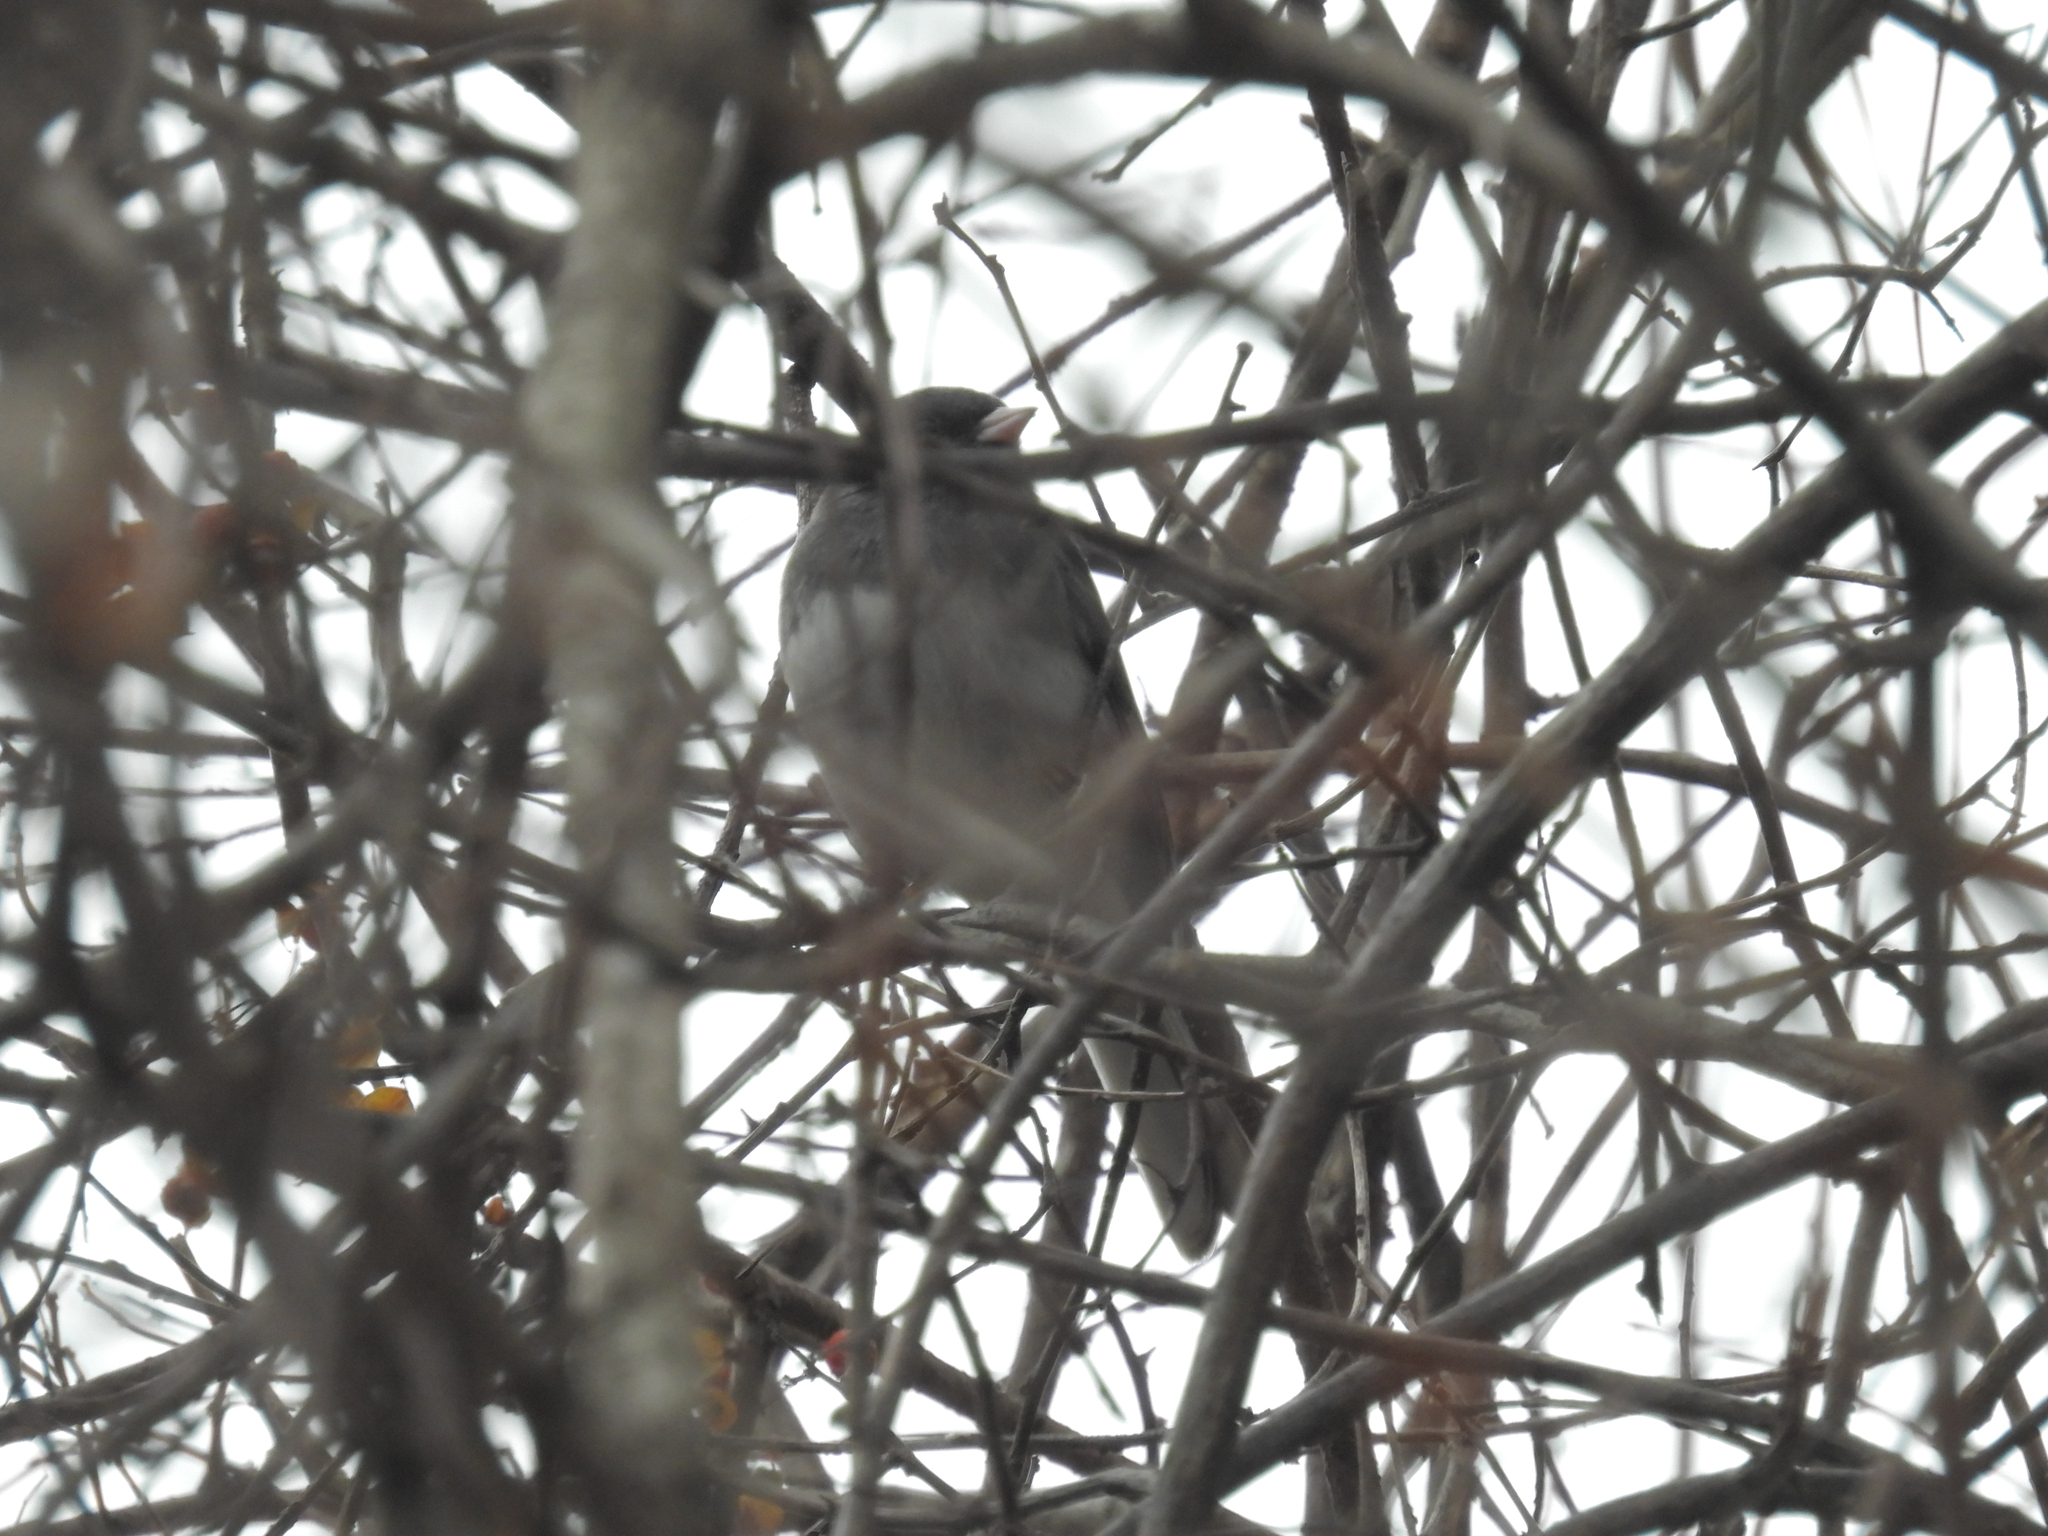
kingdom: Animalia
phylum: Chordata
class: Aves
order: Passeriformes
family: Passerellidae
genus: Junco
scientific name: Junco hyemalis
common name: Dark-eyed junco
